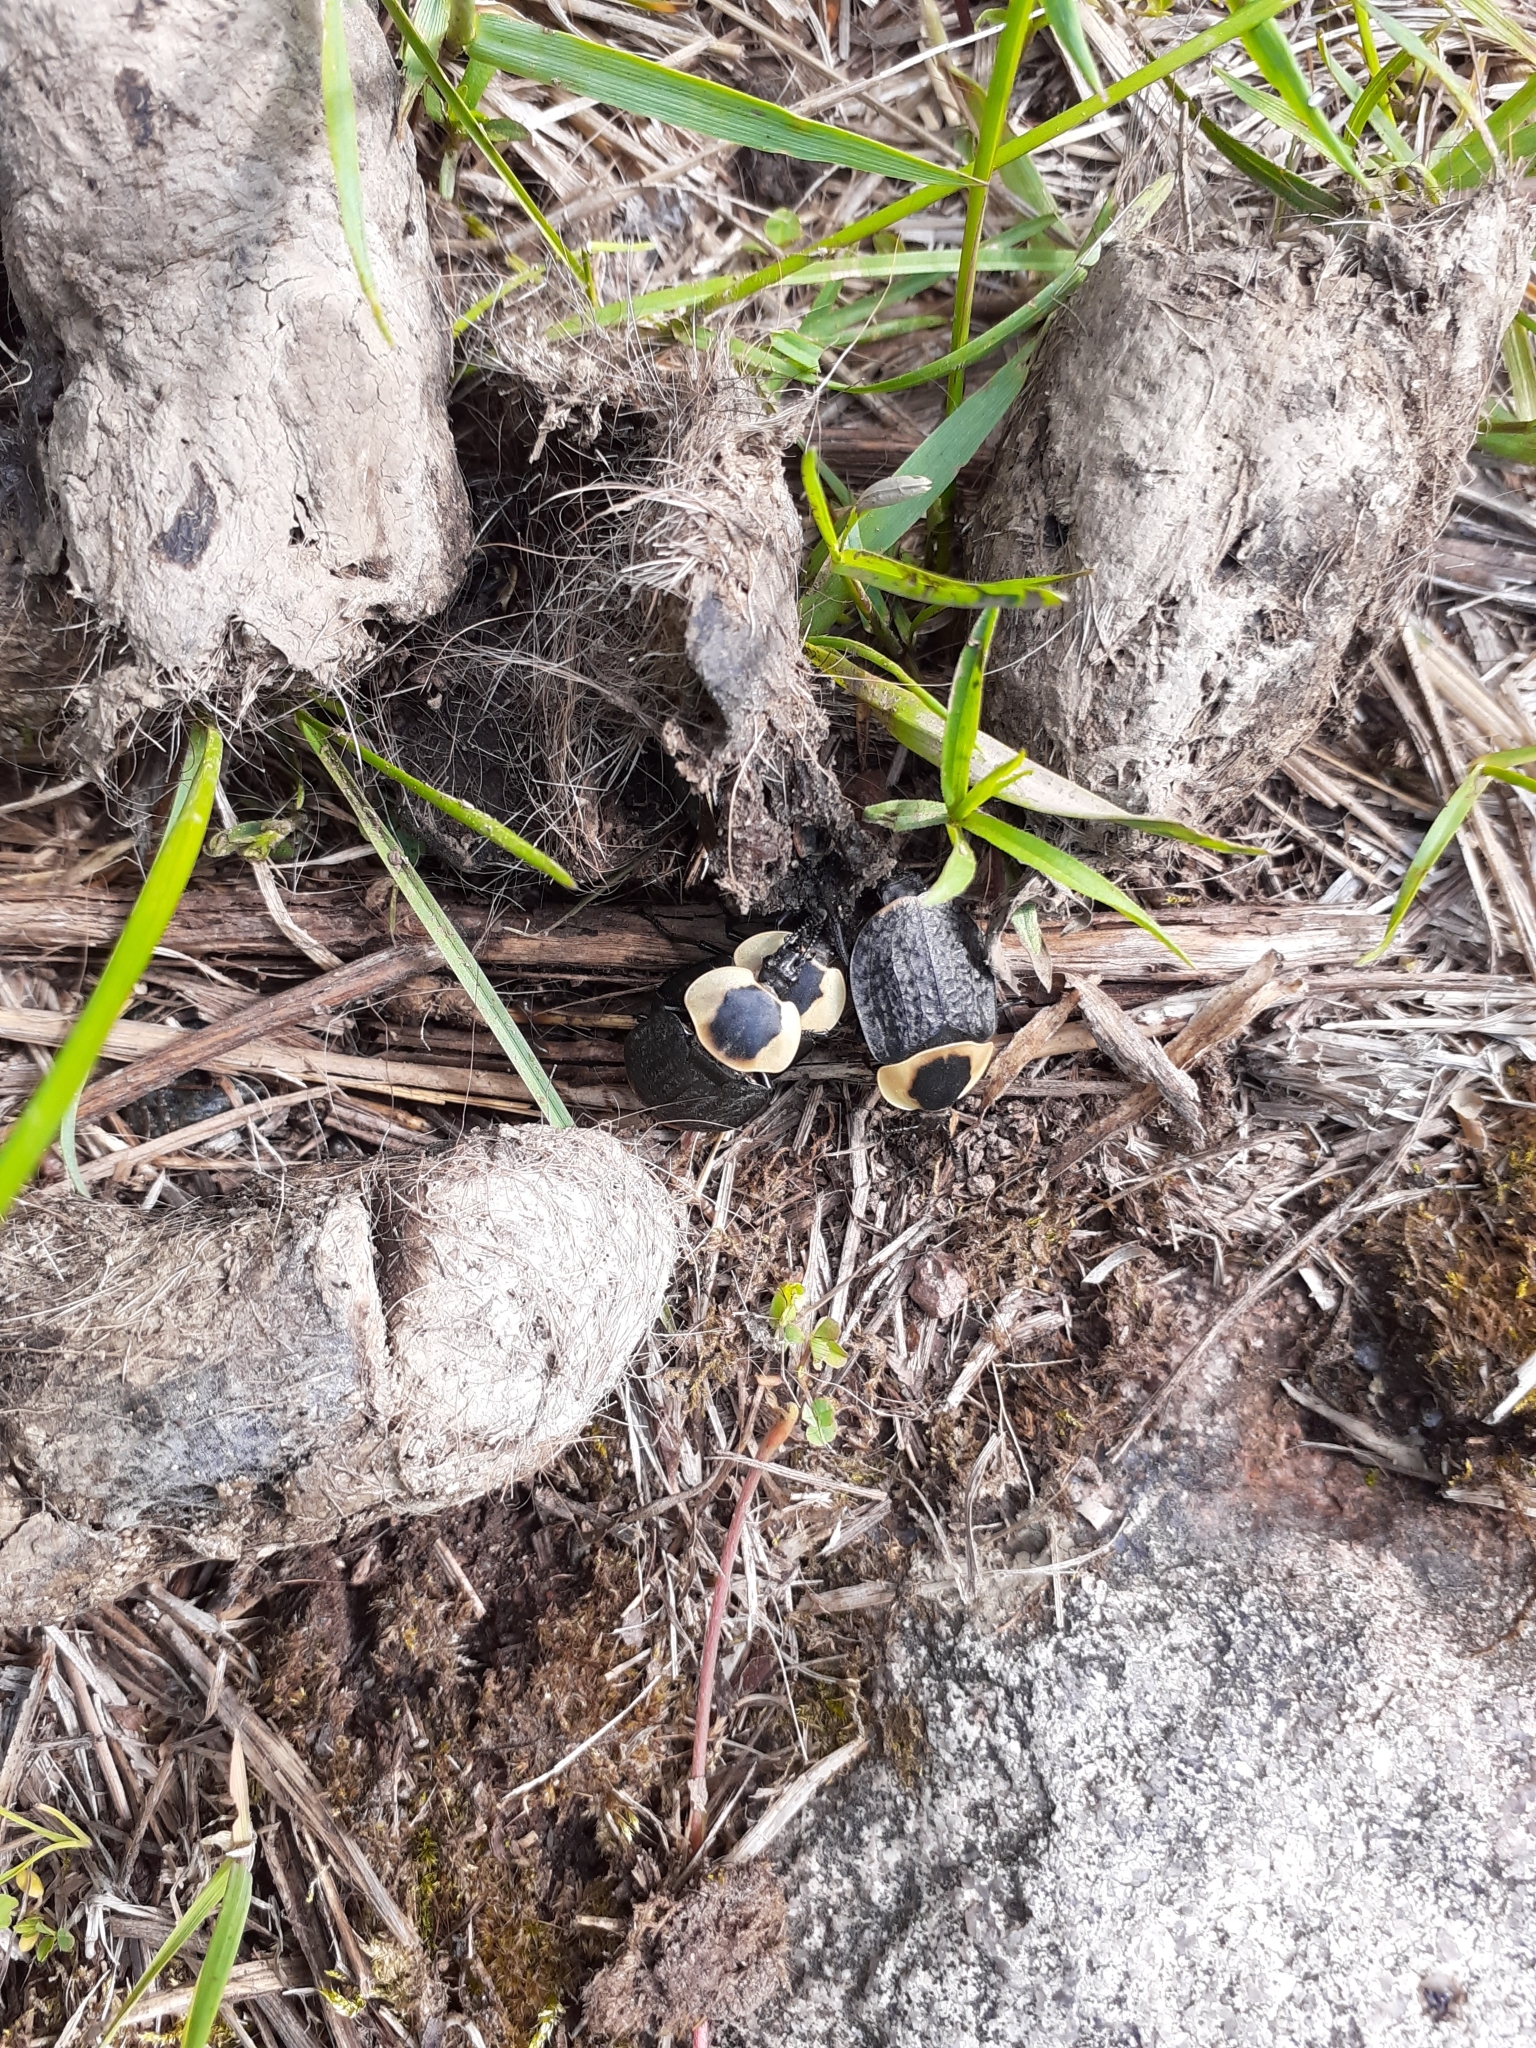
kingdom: Animalia
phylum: Arthropoda
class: Insecta
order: Coleoptera
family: Staphylinidae
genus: Necrophila
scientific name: Necrophila americana
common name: American carrion beetle
